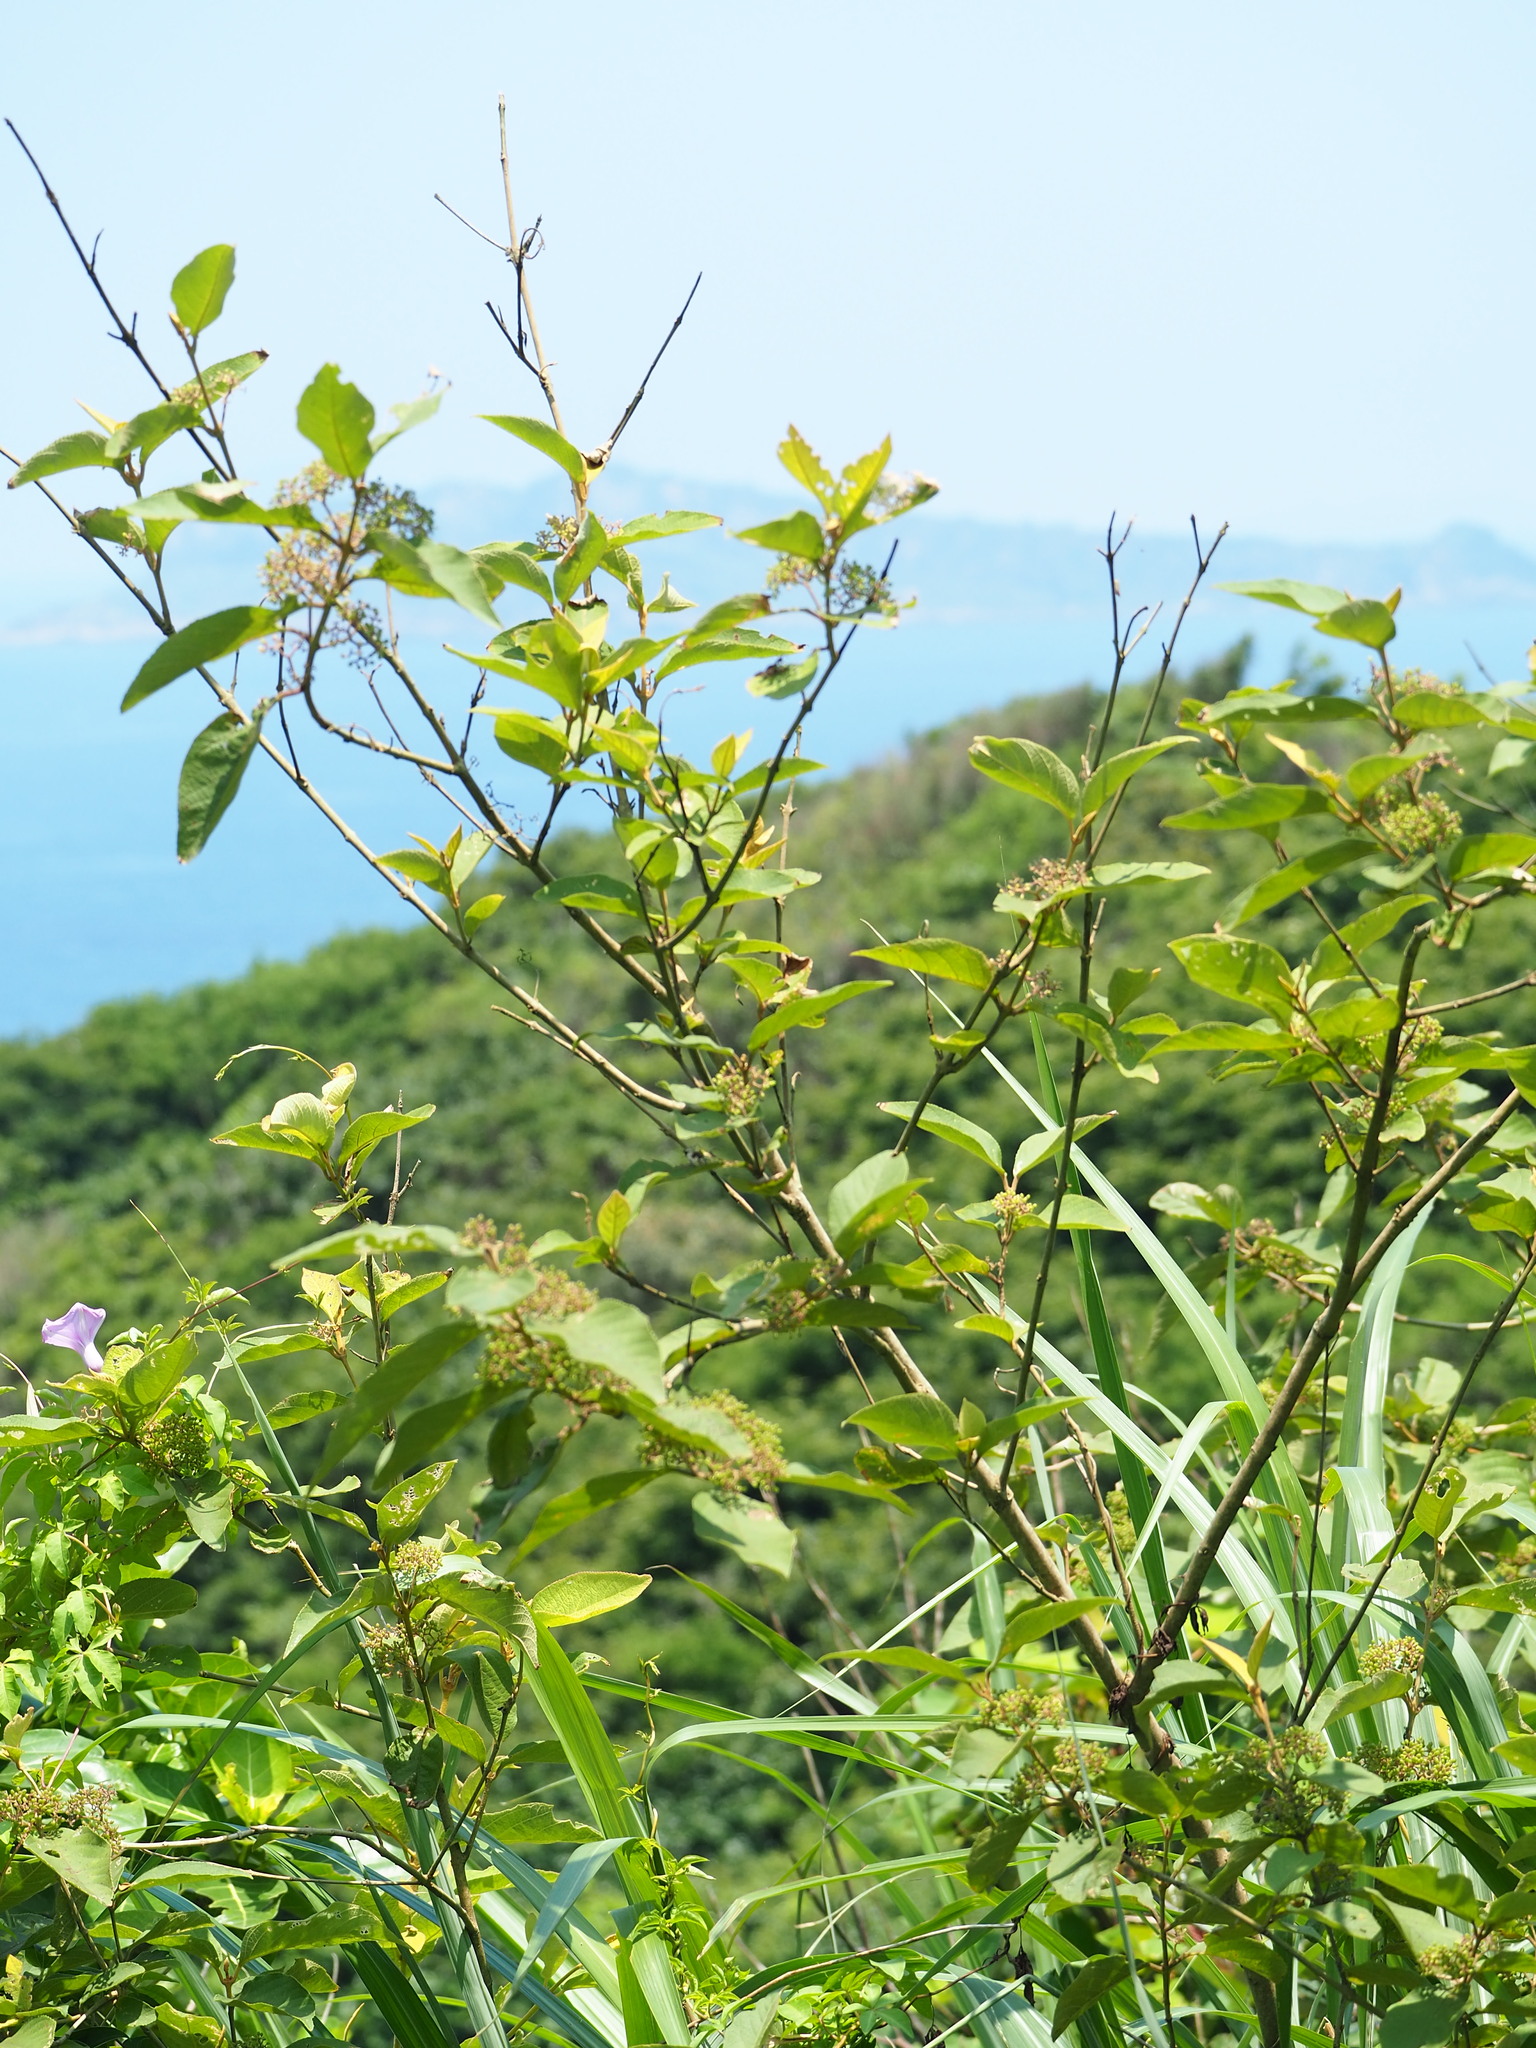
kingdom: Plantae
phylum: Tracheophyta
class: Magnoliopsida
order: Lamiales
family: Lamiaceae
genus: Callicarpa
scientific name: Callicarpa pedunculata
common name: Velvetleaf
